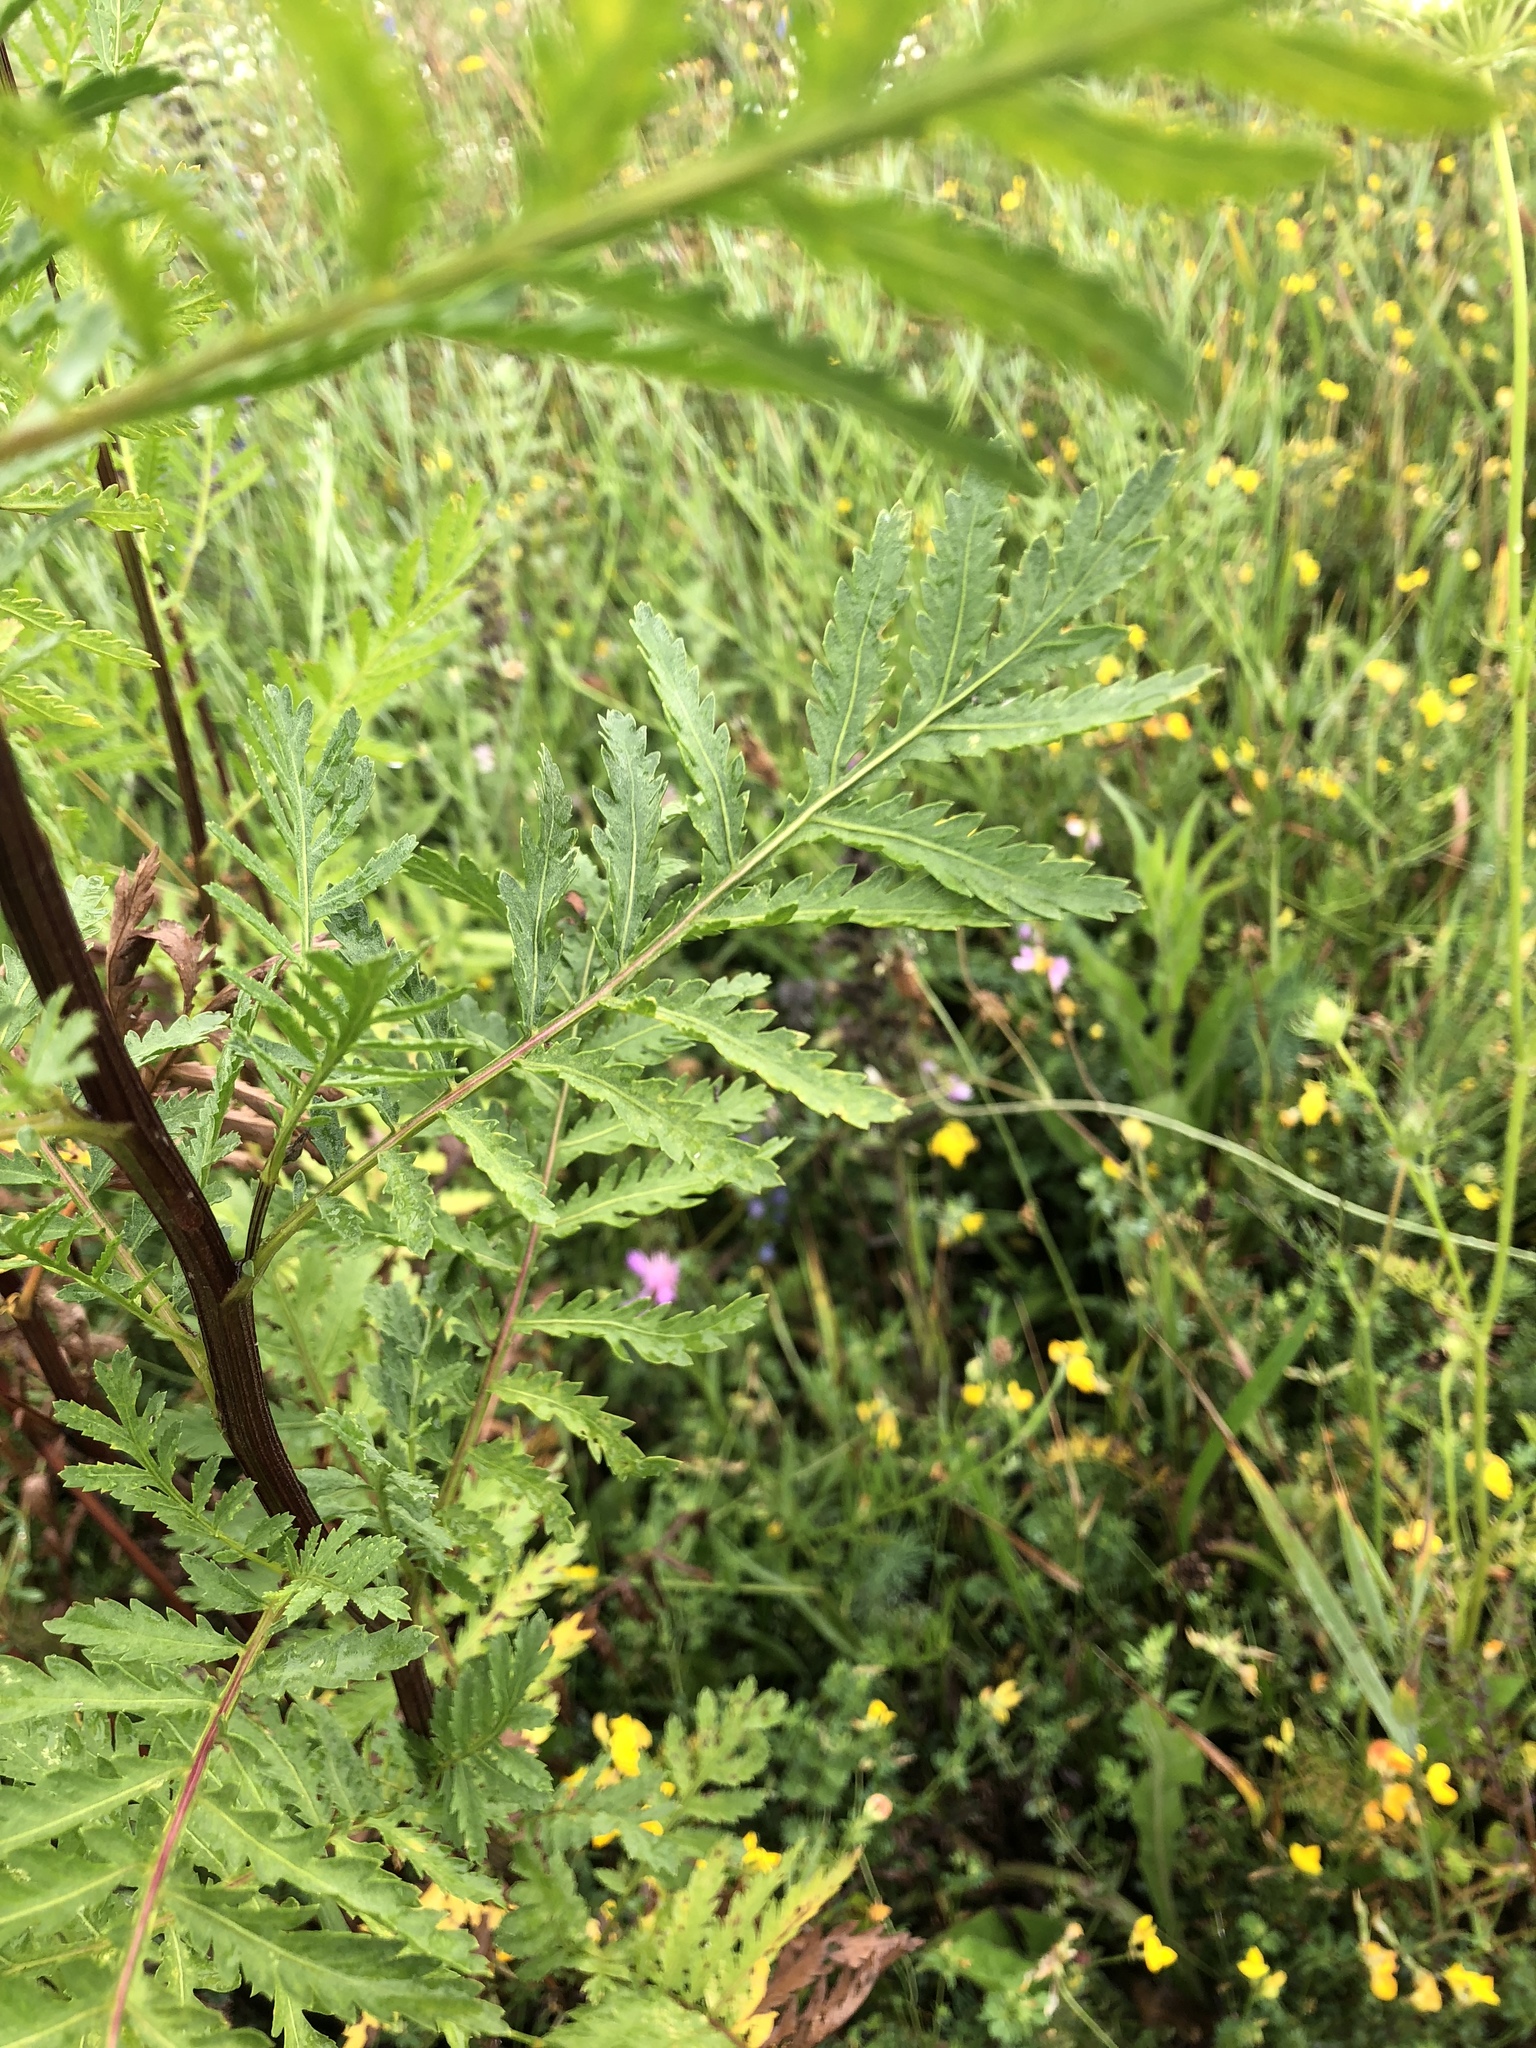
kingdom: Plantae
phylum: Tracheophyta
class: Magnoliopsida
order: Asterales
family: Asteraceae
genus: Tanacetum
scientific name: Tanacetum vulgare
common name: Common tansy
